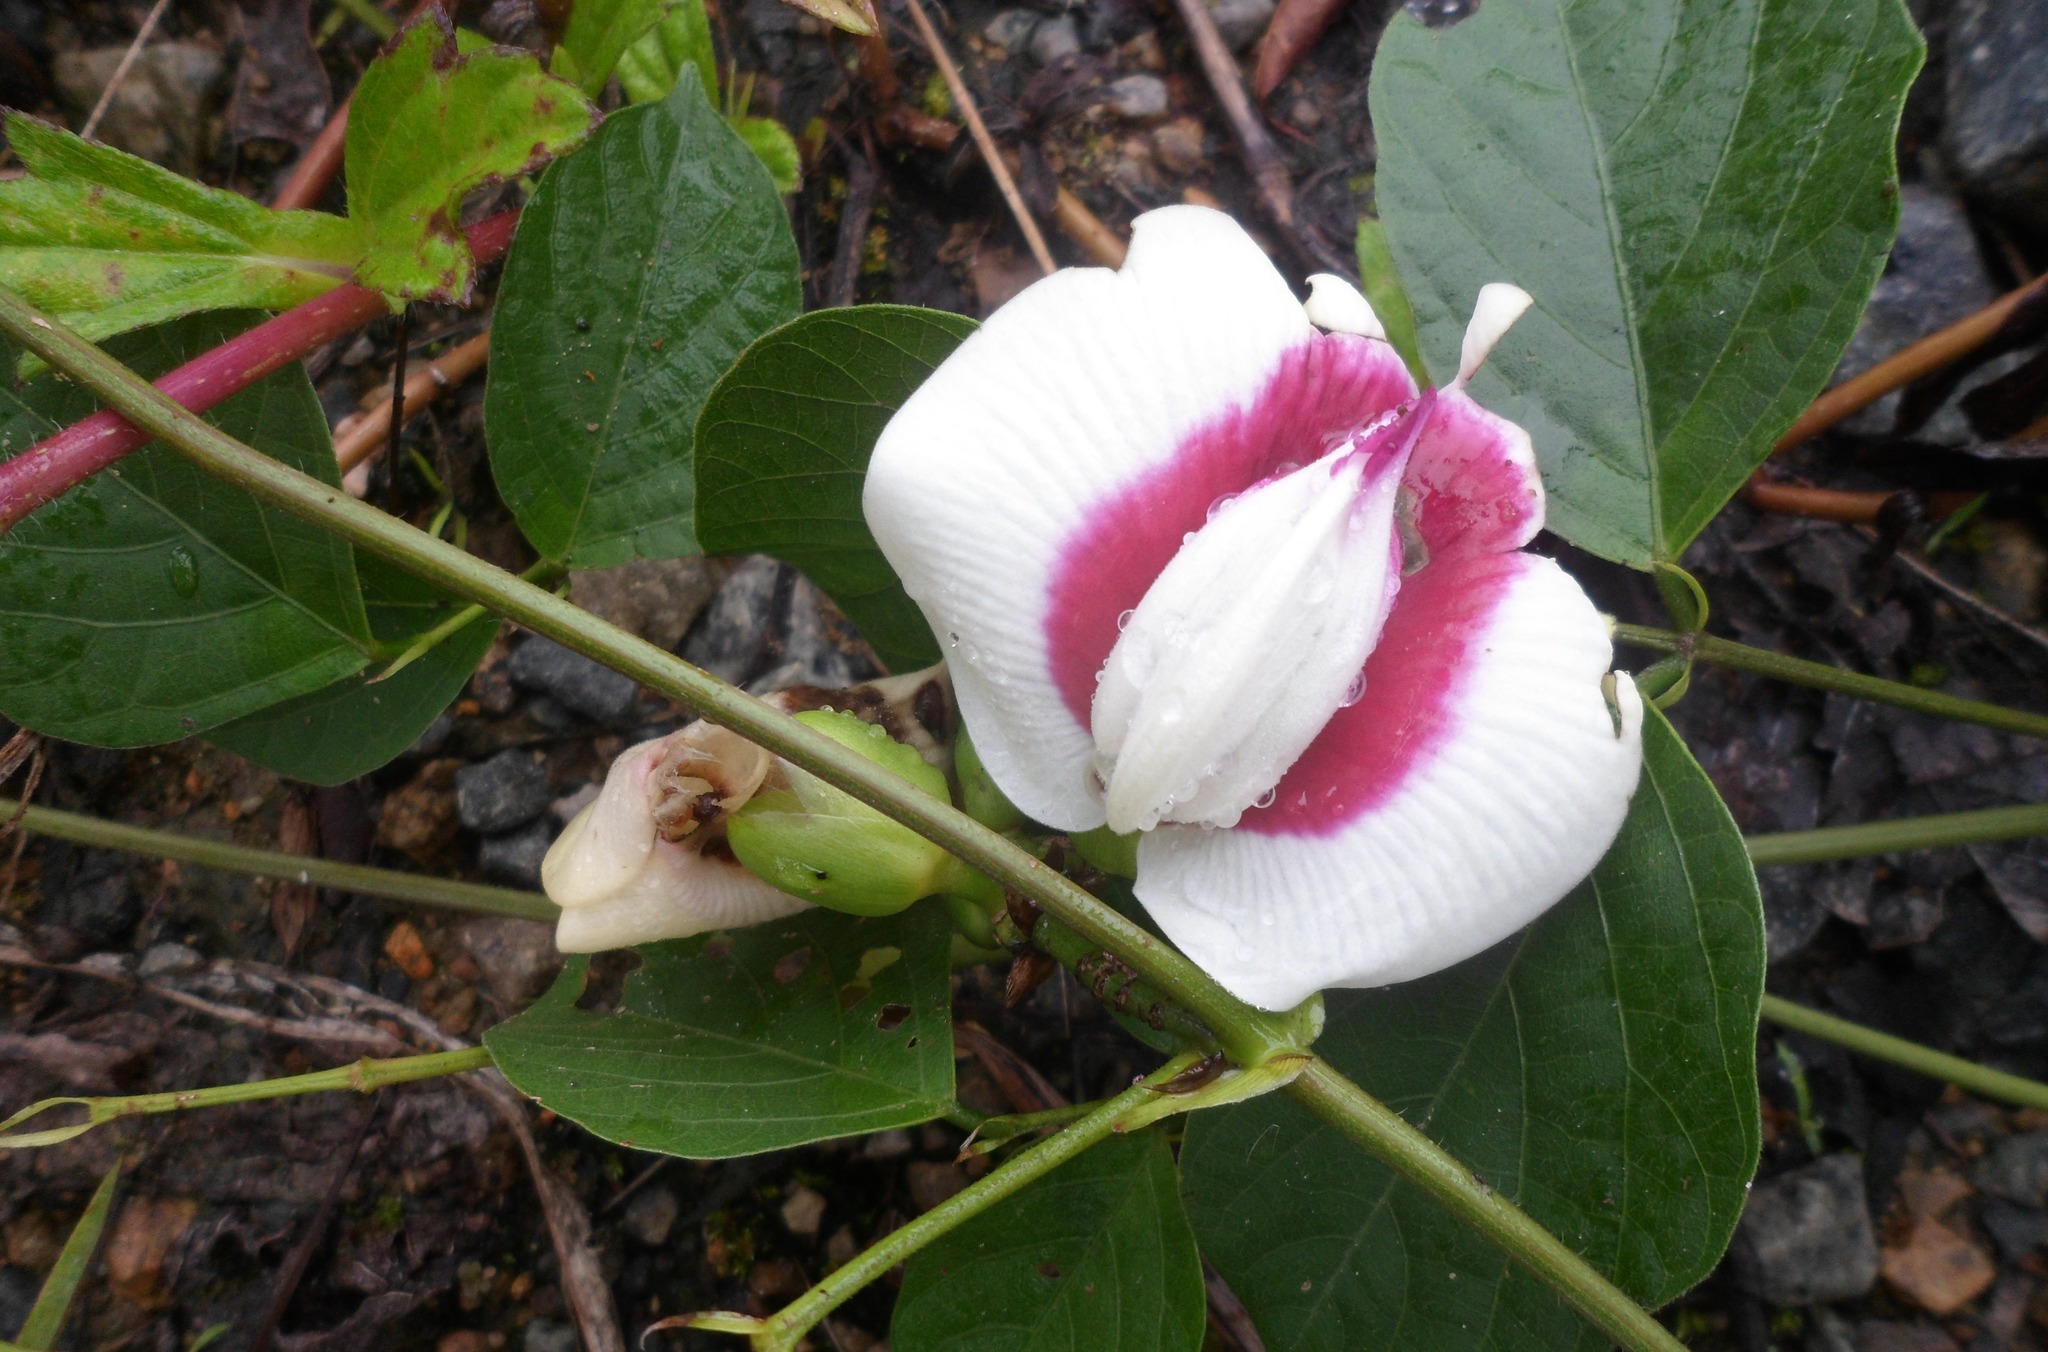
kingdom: Plantae
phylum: Tracheophyta
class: Magnoliopsida
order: Fabales
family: Fabaceae
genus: Centrosema
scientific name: Centrosema plumieri
